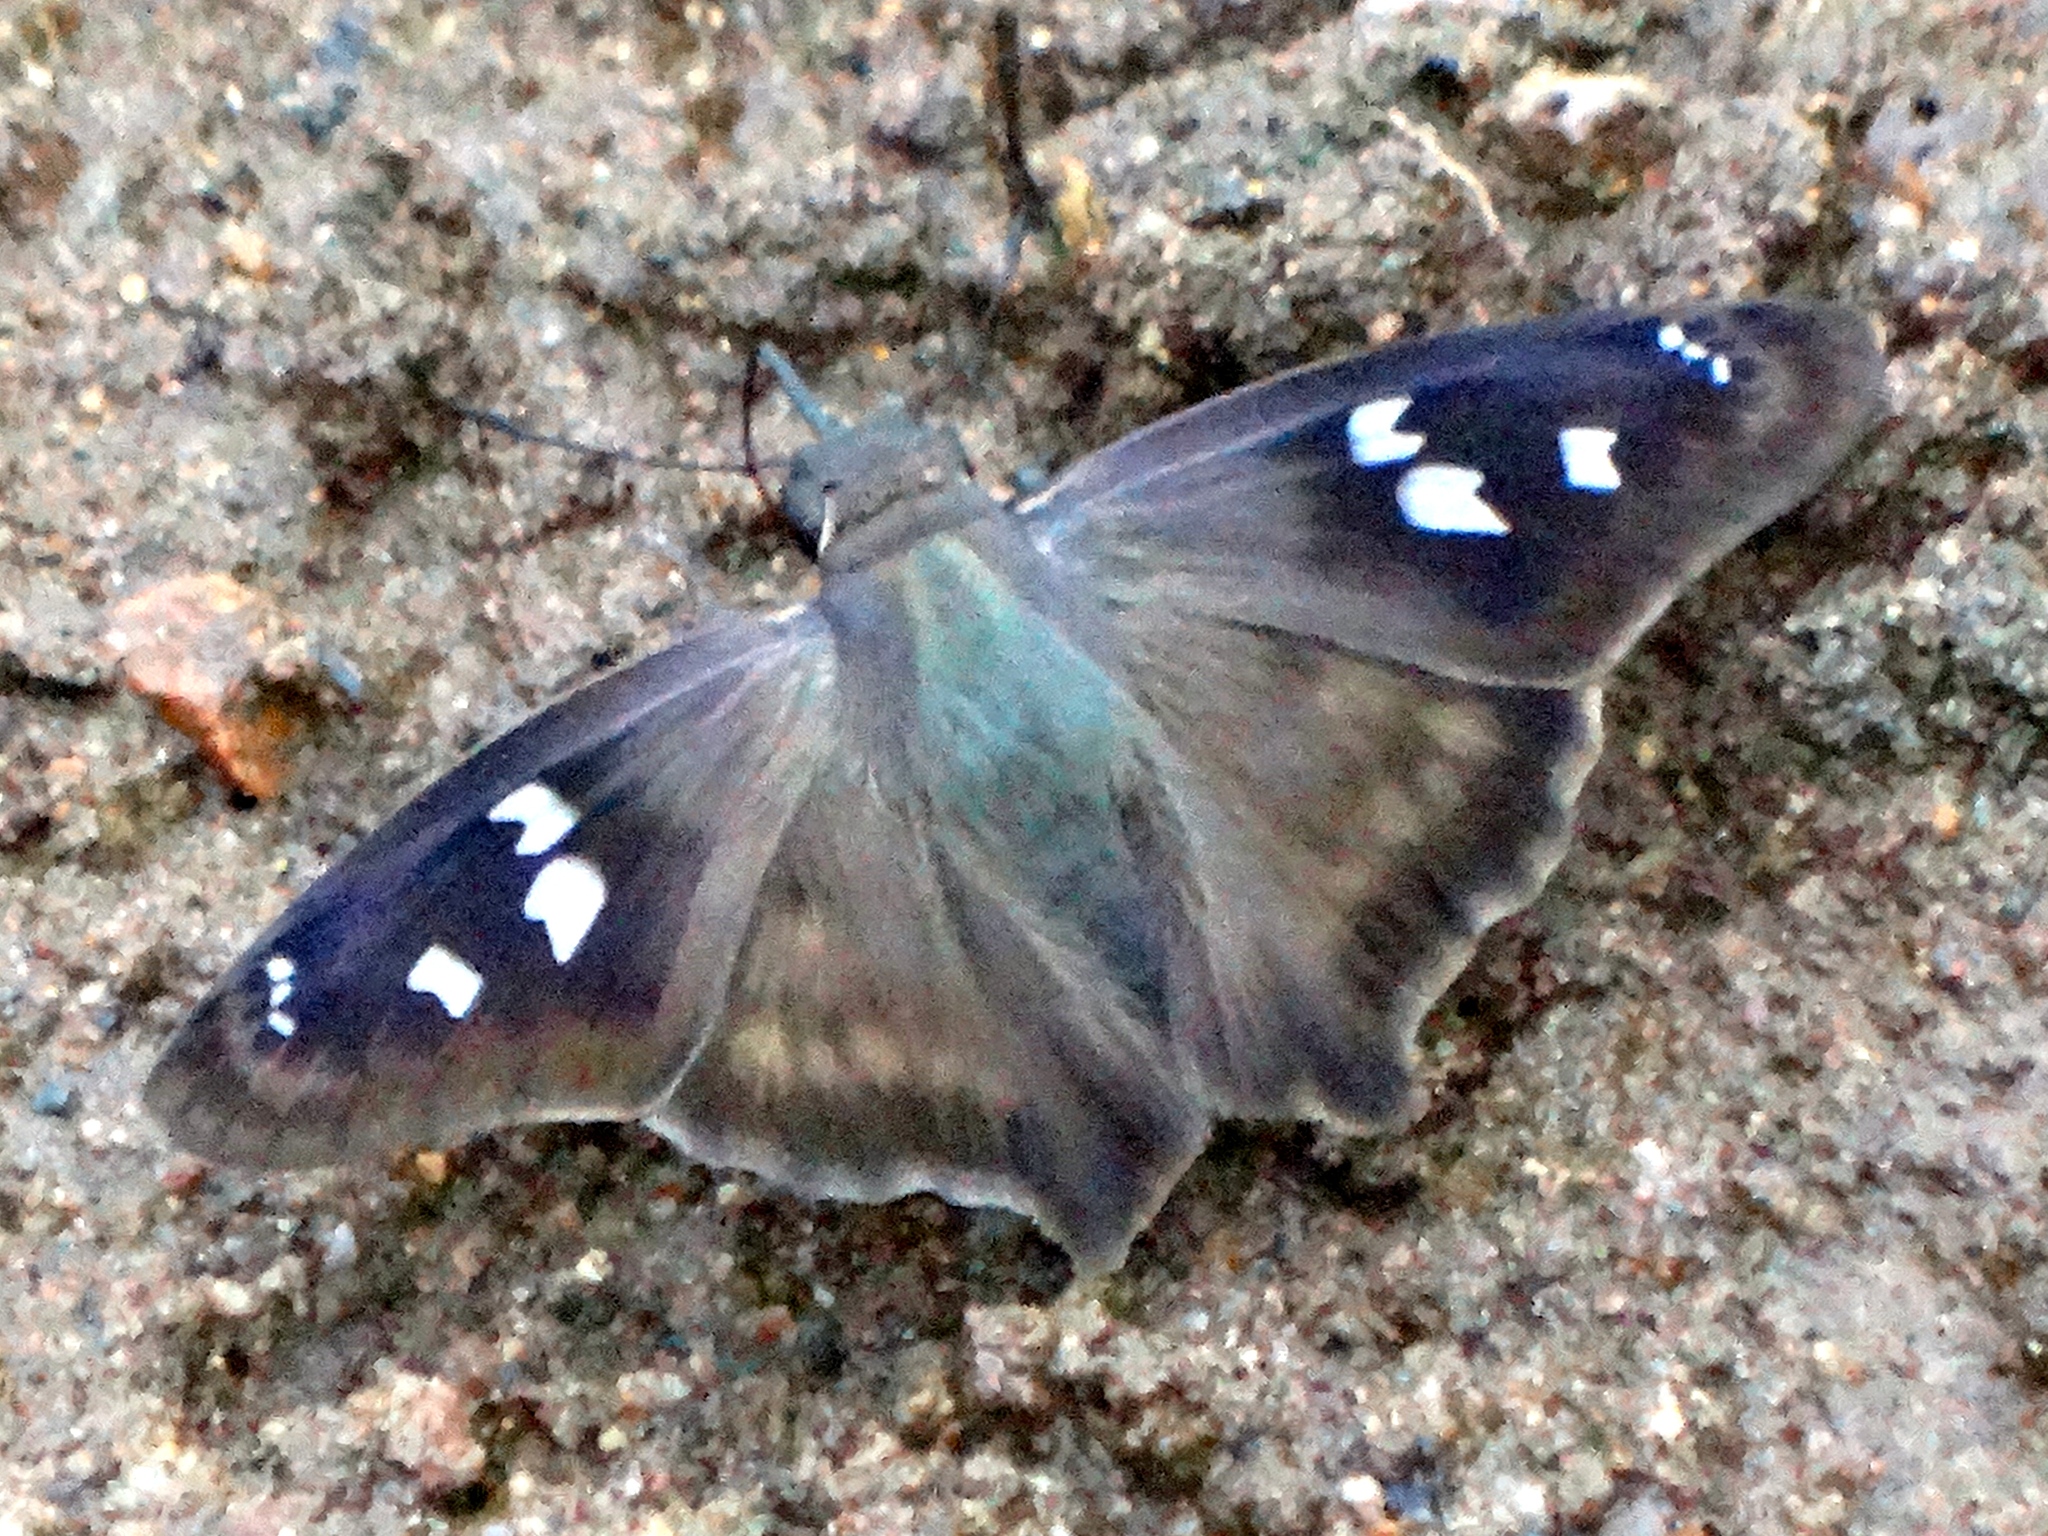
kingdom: Animalia
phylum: Arthropoda
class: Insecta
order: Lepidoptera
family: Hesperiidae
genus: Polygonus
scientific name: Polygonus leo
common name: Hammoch skipper
